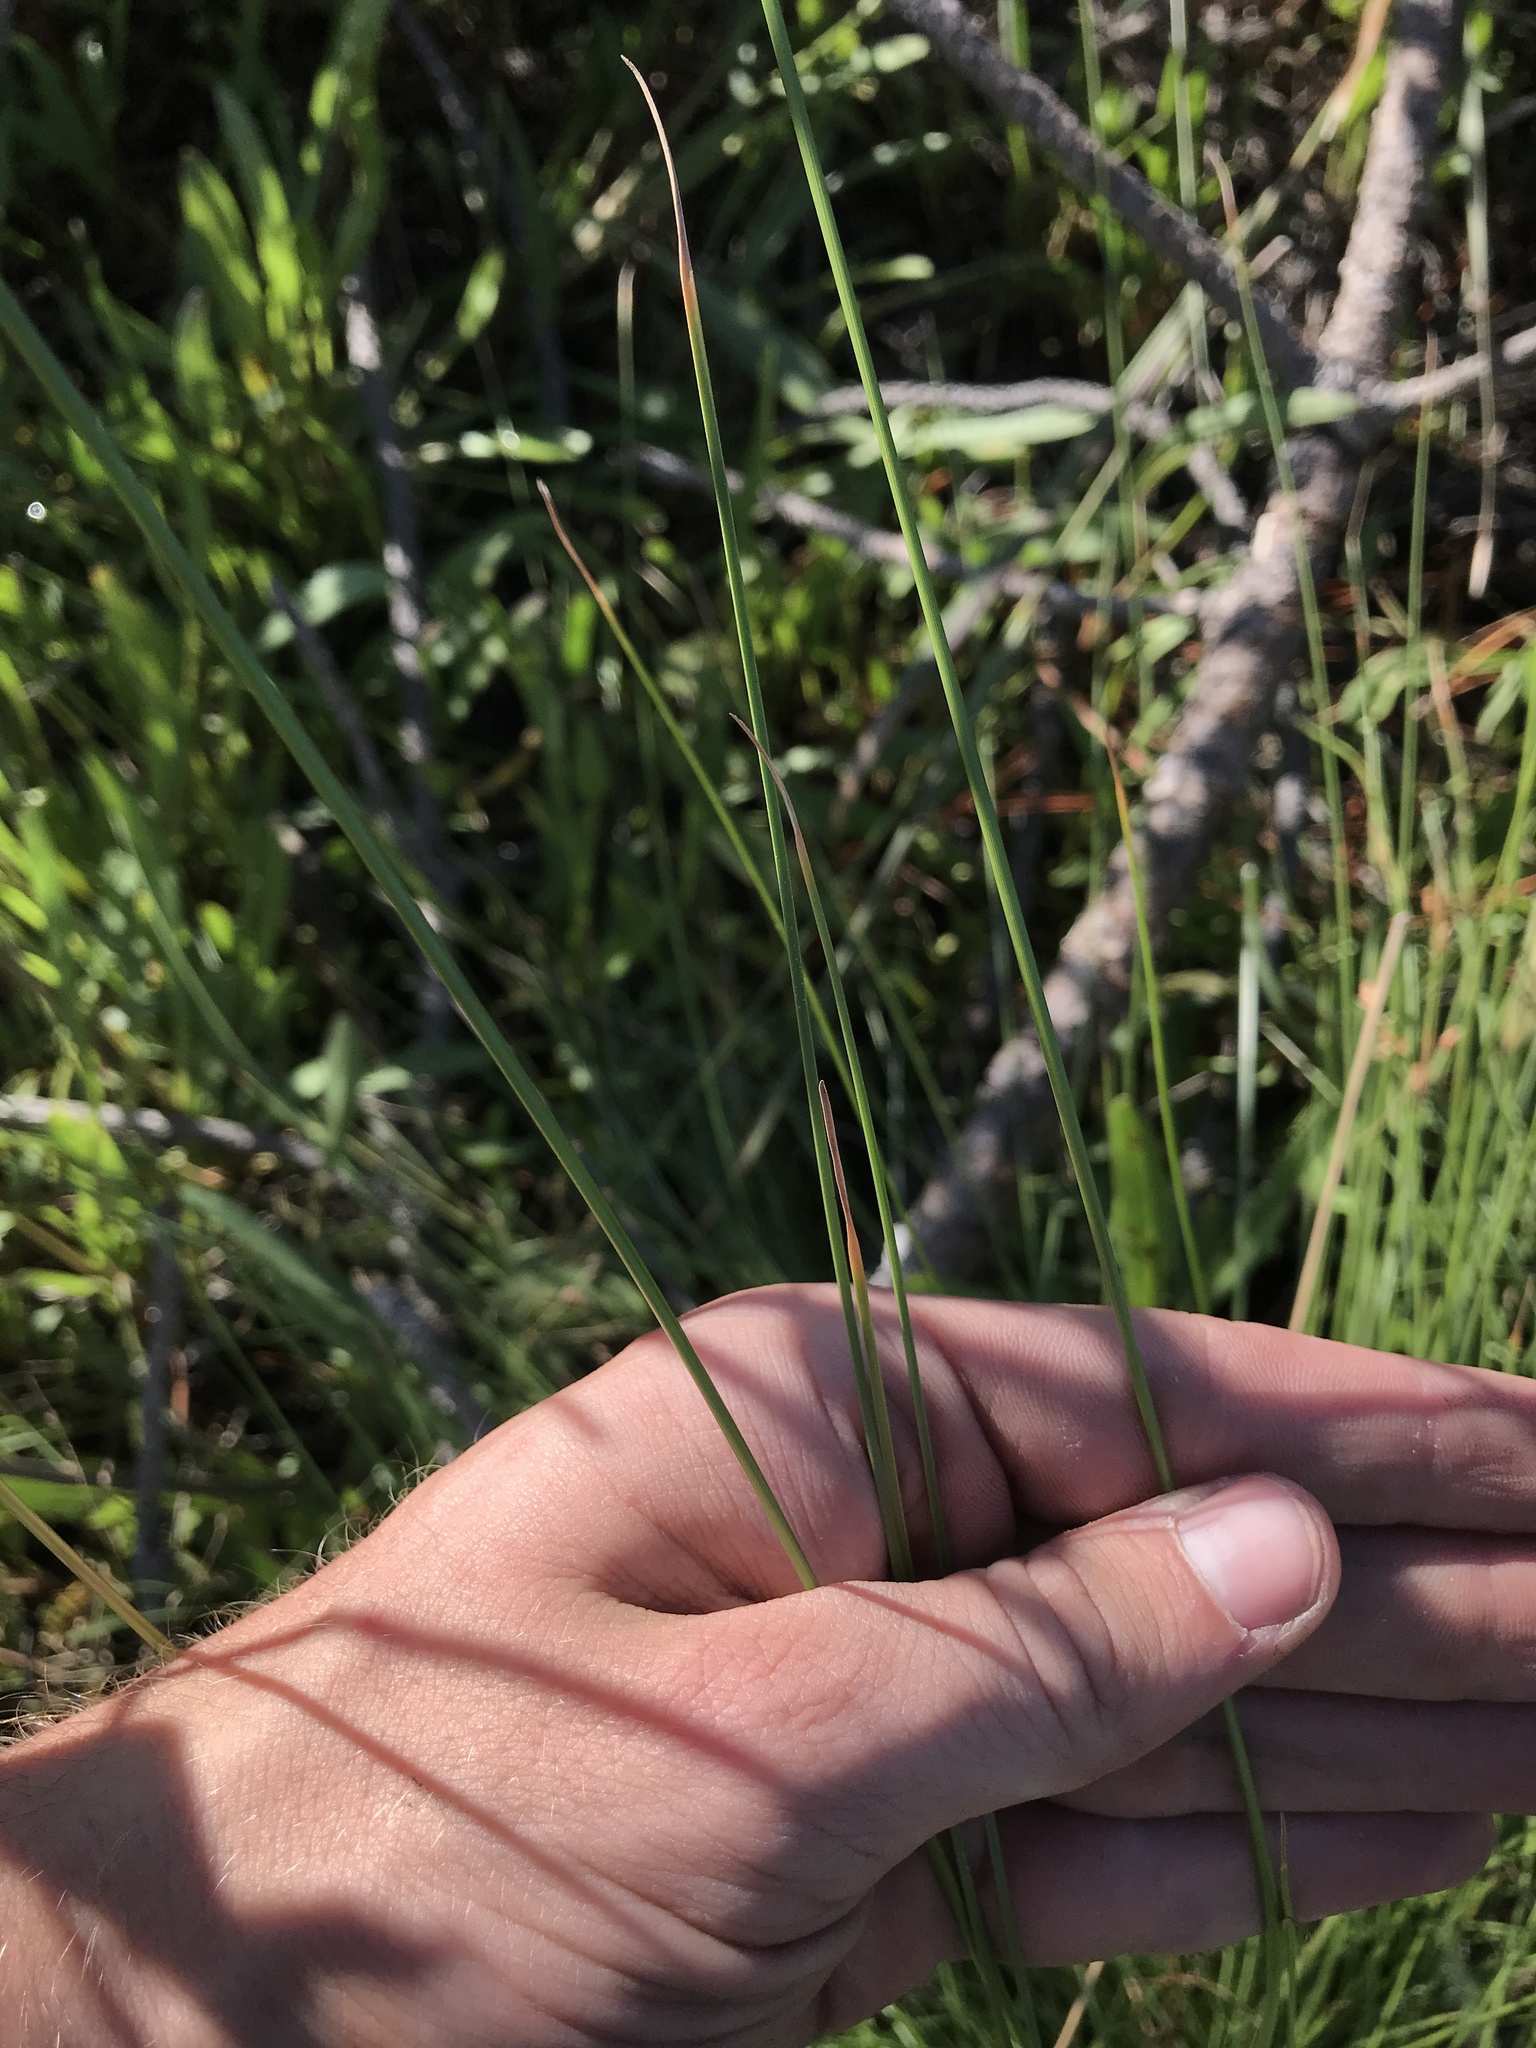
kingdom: Plantae
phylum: Tracheophyta
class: Liliopsida
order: Poales
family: Cyperaceae
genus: Fimbristylis
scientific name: Fimbristylis spadicea
